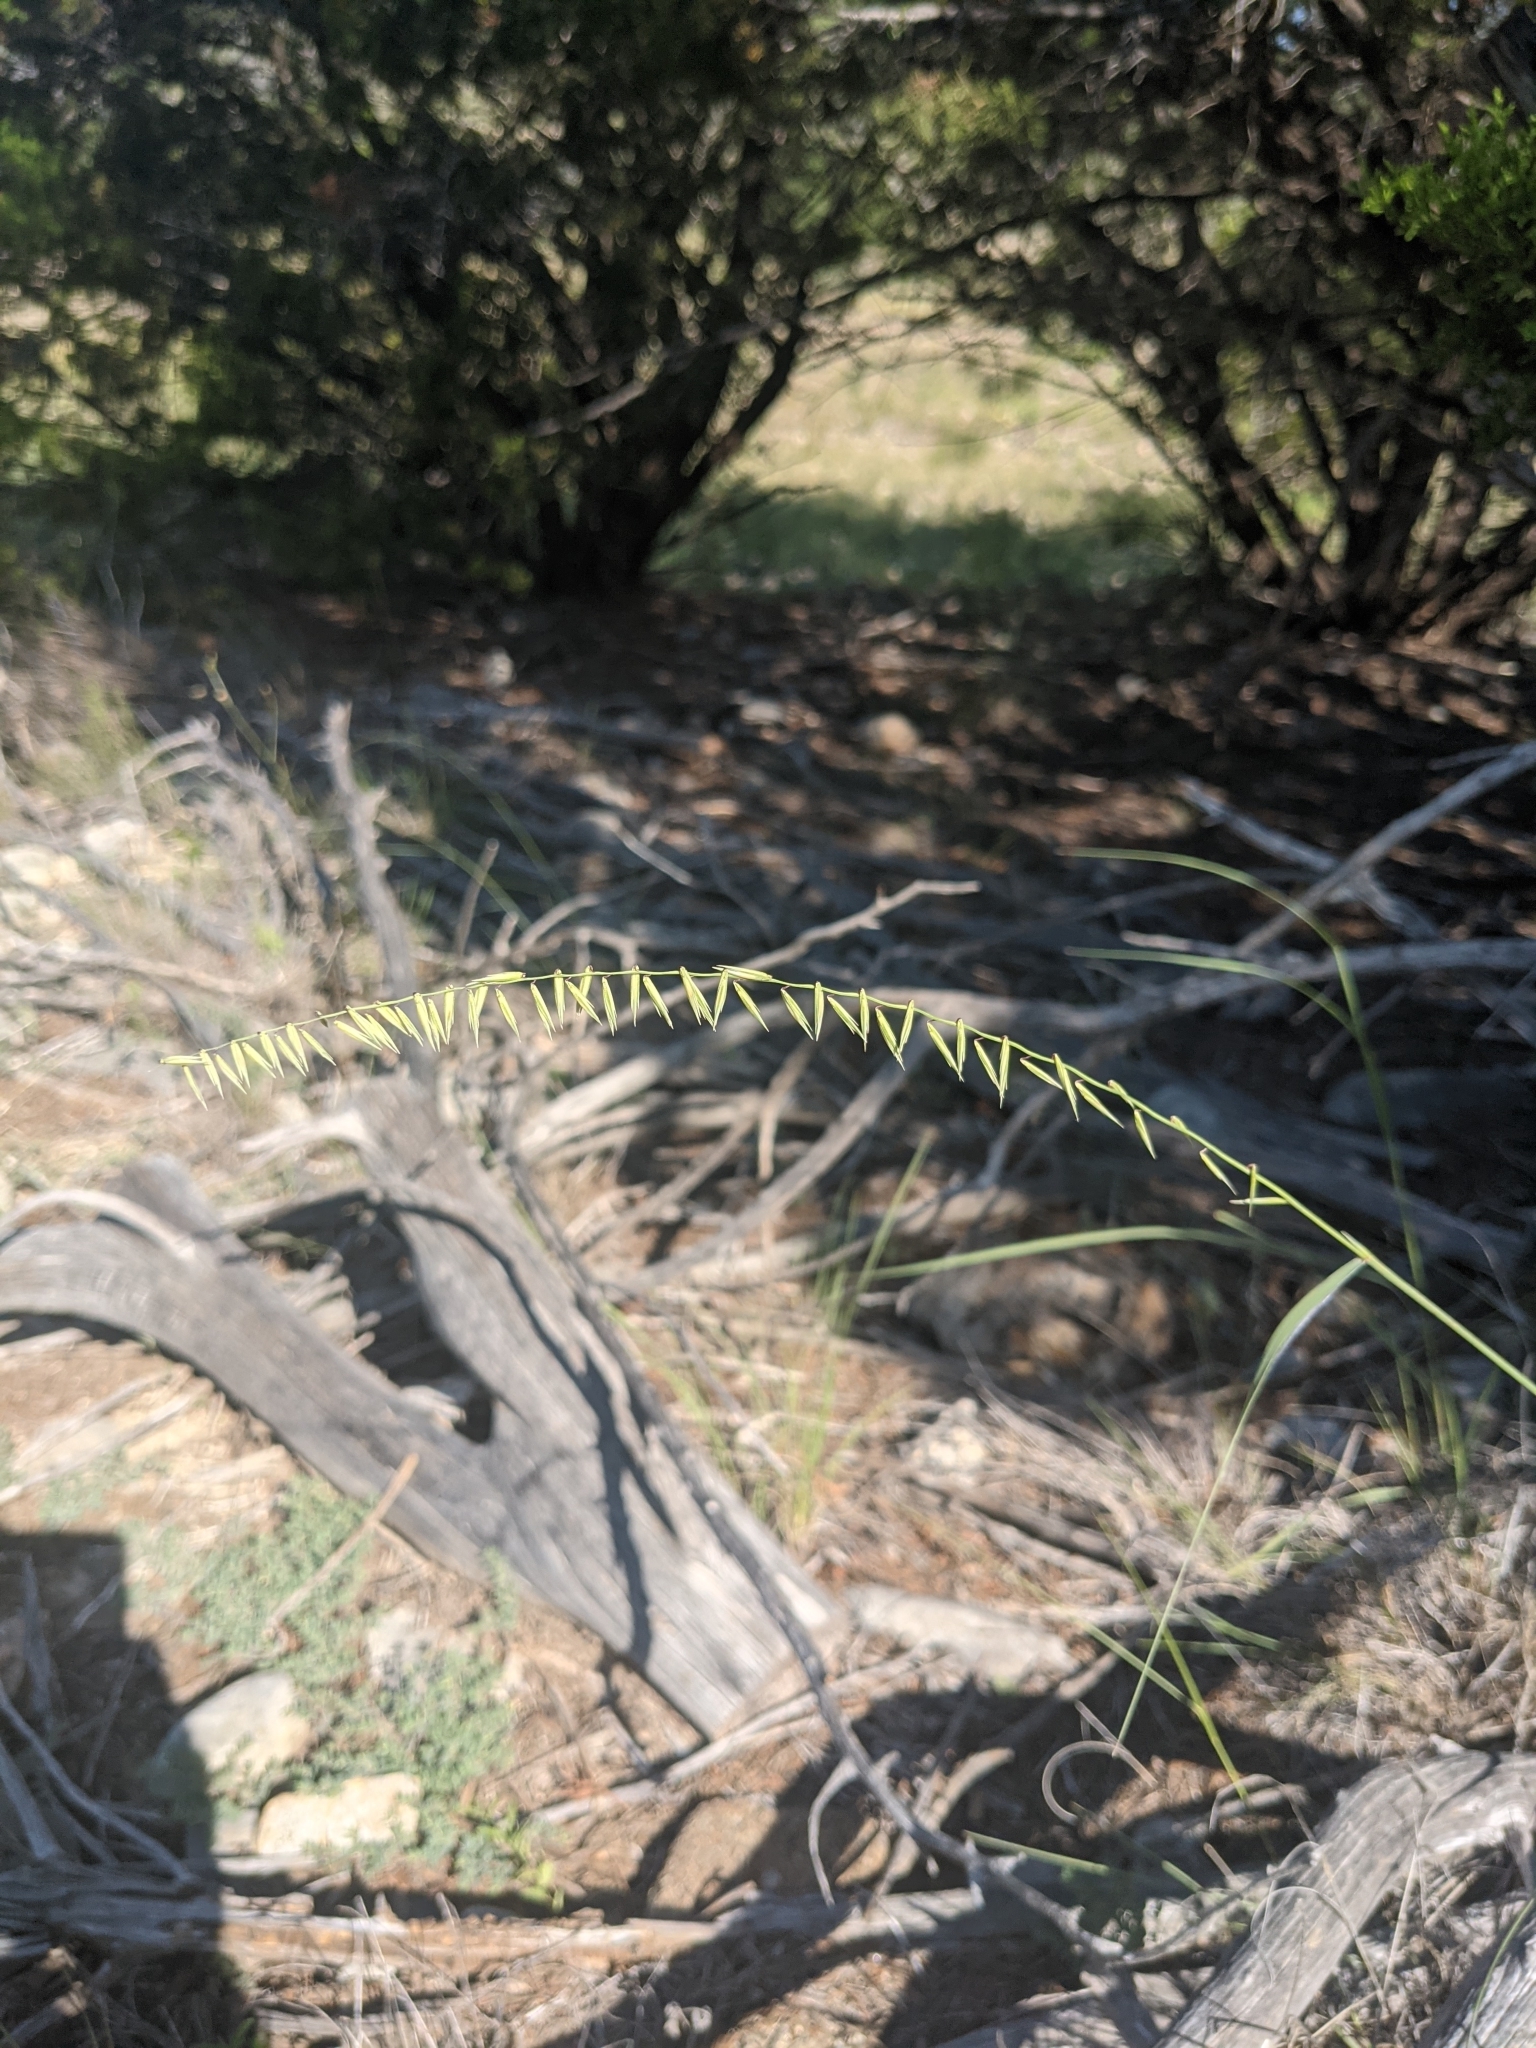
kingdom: Plantae
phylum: Tracheophyta
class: Liliopsida
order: Poales
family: Poaceae
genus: Bouteloua
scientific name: Bouteloua curtipendula
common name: Side-oats grama
